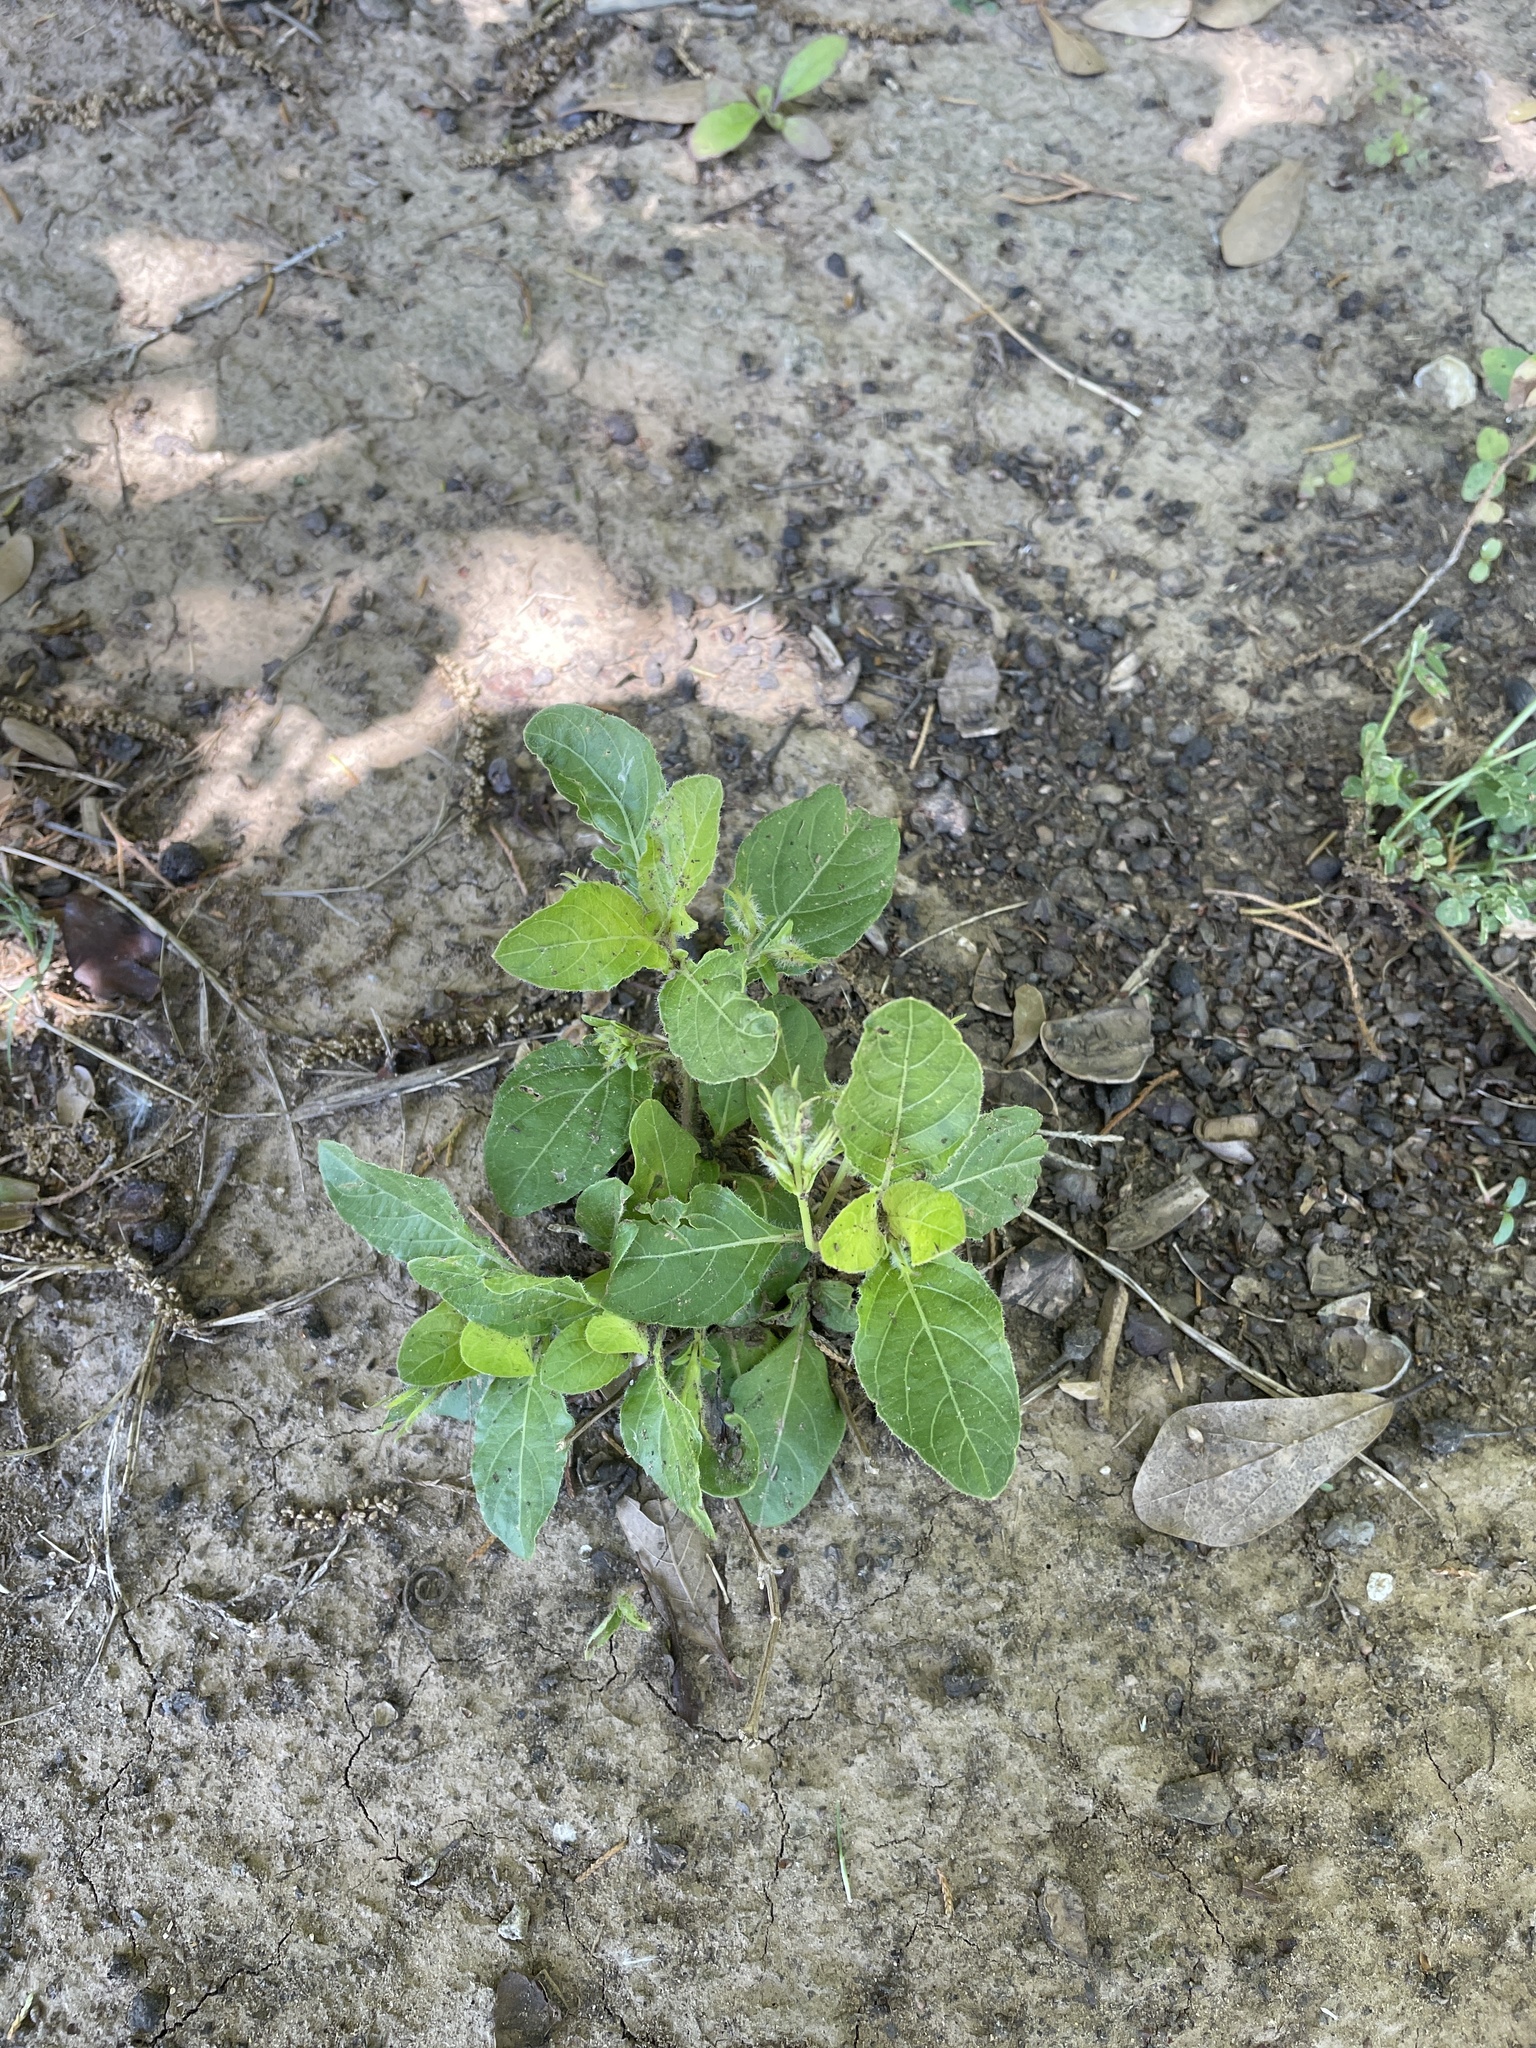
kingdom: Plantae
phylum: Tracheophyta
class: Magnoliopsida
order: Lamiales
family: Acanthaceae
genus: Ruellia
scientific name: Ruellia ciliatiflora
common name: Hairyflower wild petunia
